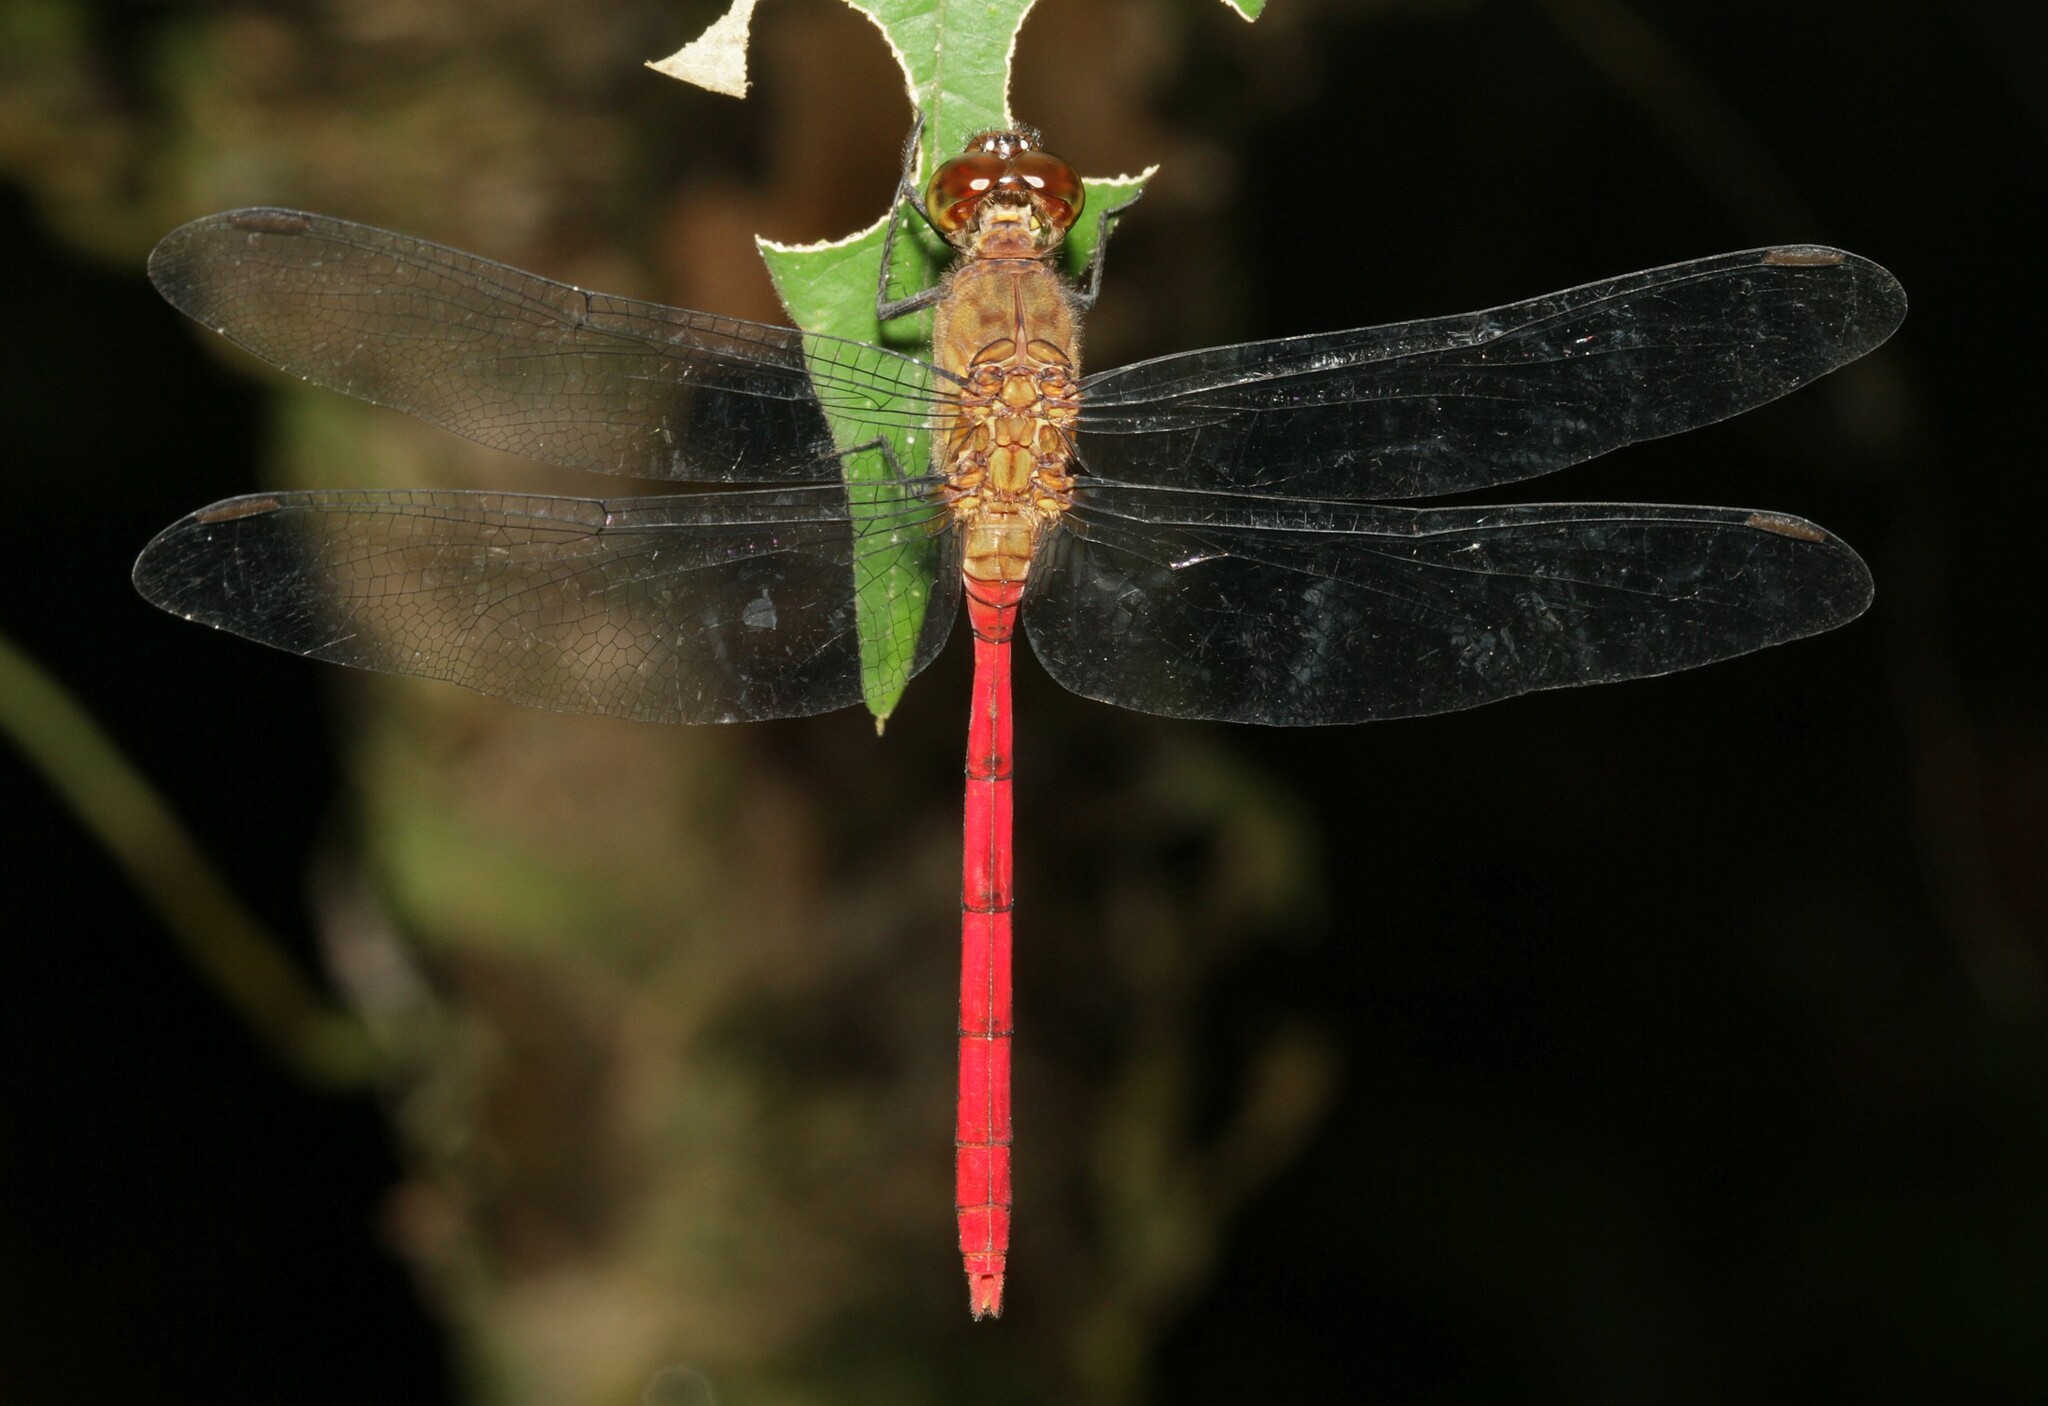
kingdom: Animalia
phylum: Arthropoda
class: Insecta
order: Odonata
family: Libellulidae
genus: Erythemis
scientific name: Erythemis haematogastra
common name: Red pondhawk
